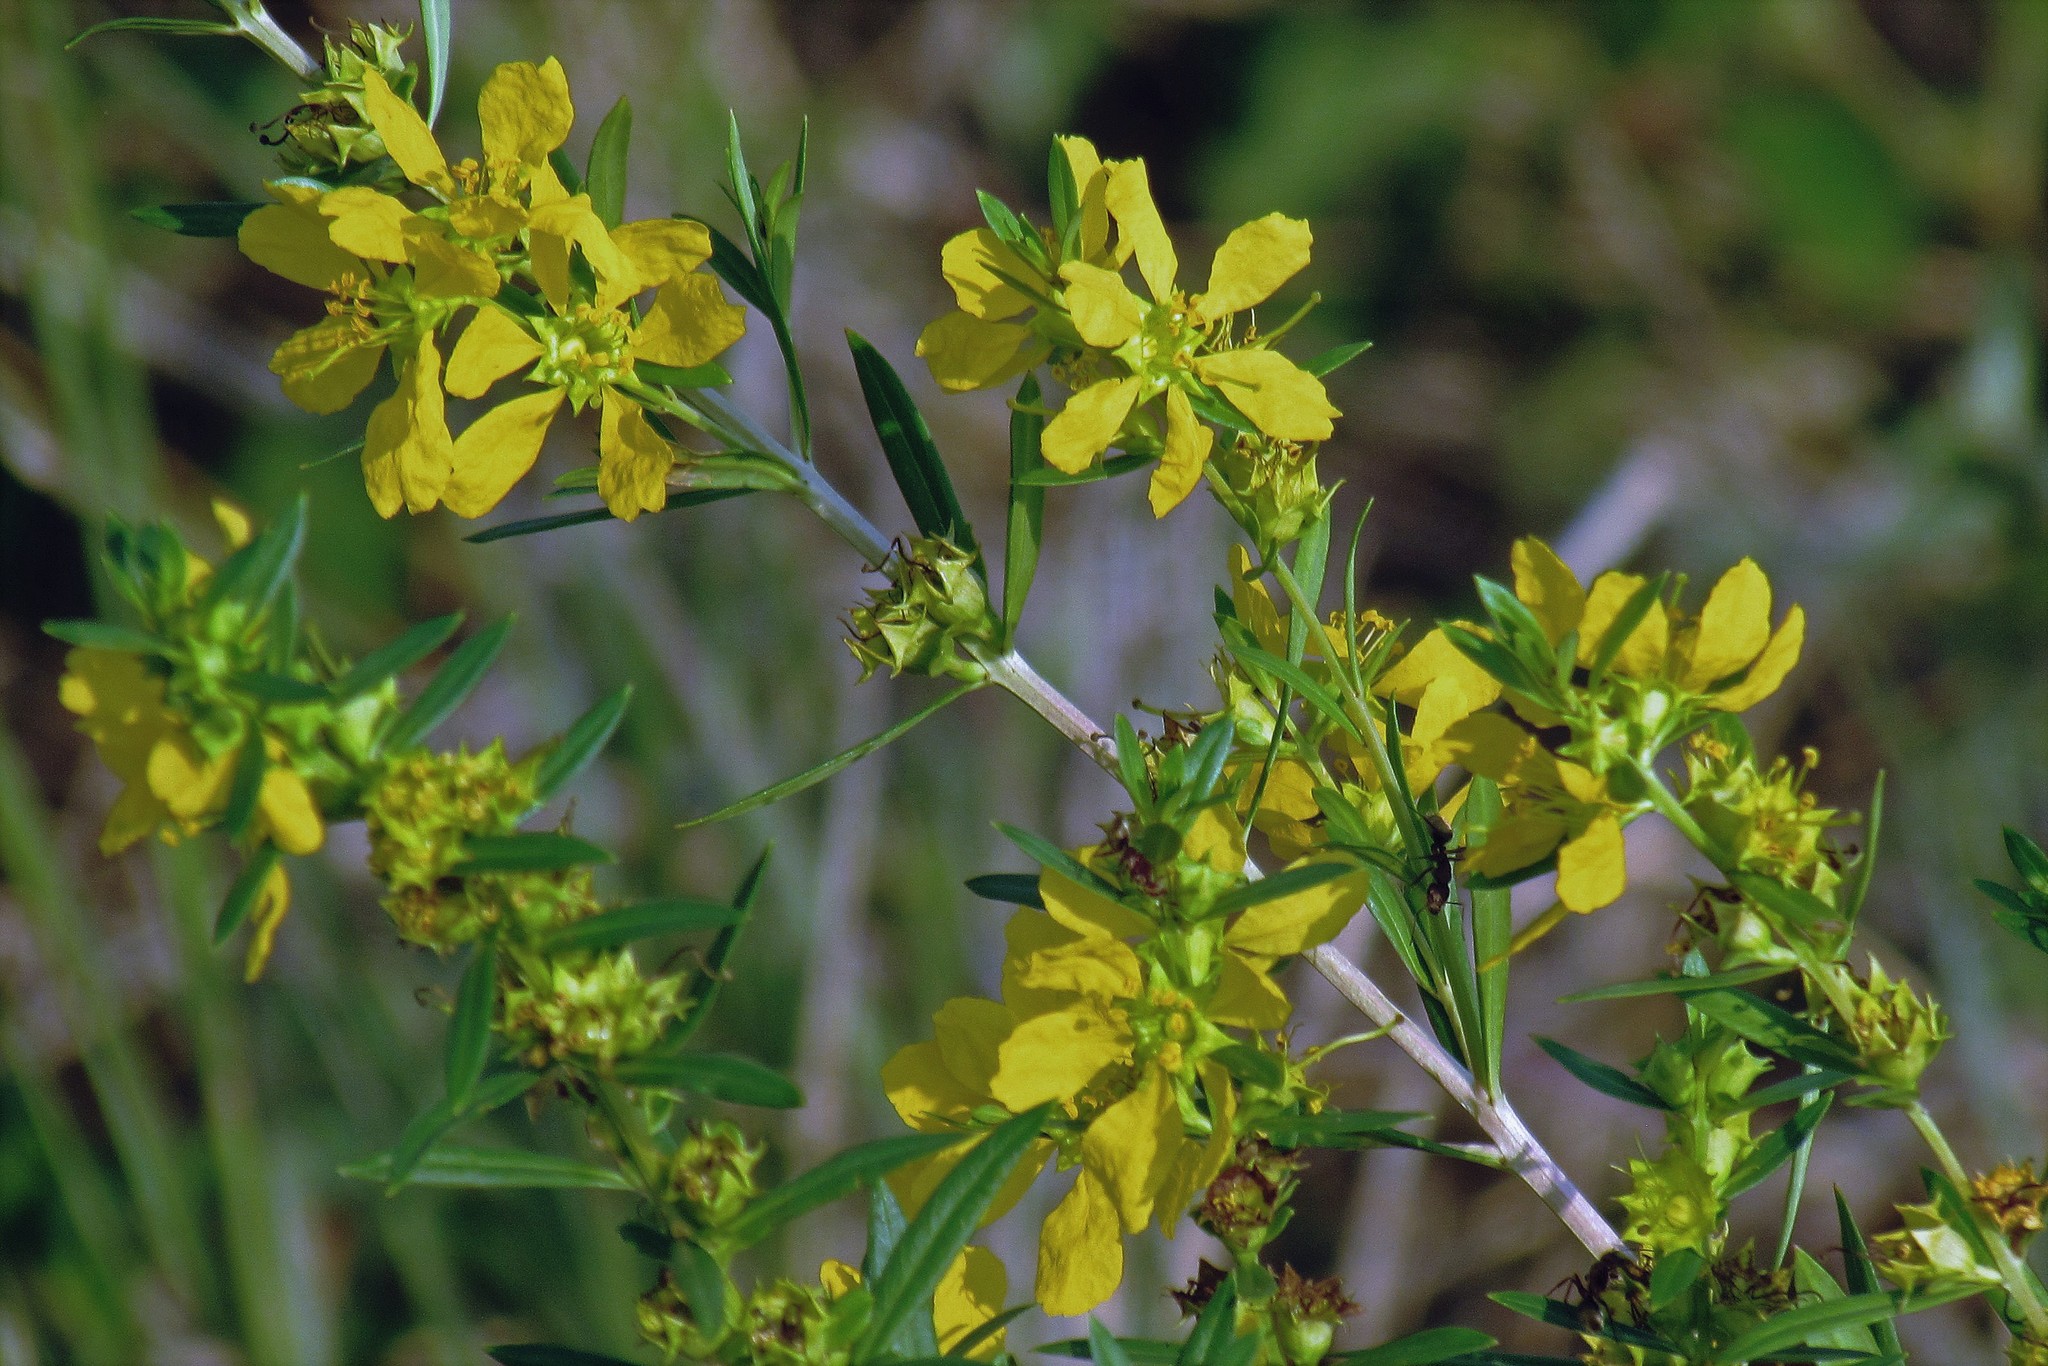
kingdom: Plantae
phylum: Tracheophyta
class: Magnoliopsida
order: Myrtales
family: Lythraceae
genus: Heimia
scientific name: Heimia salicifolia
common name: Willow-leaf heimia
